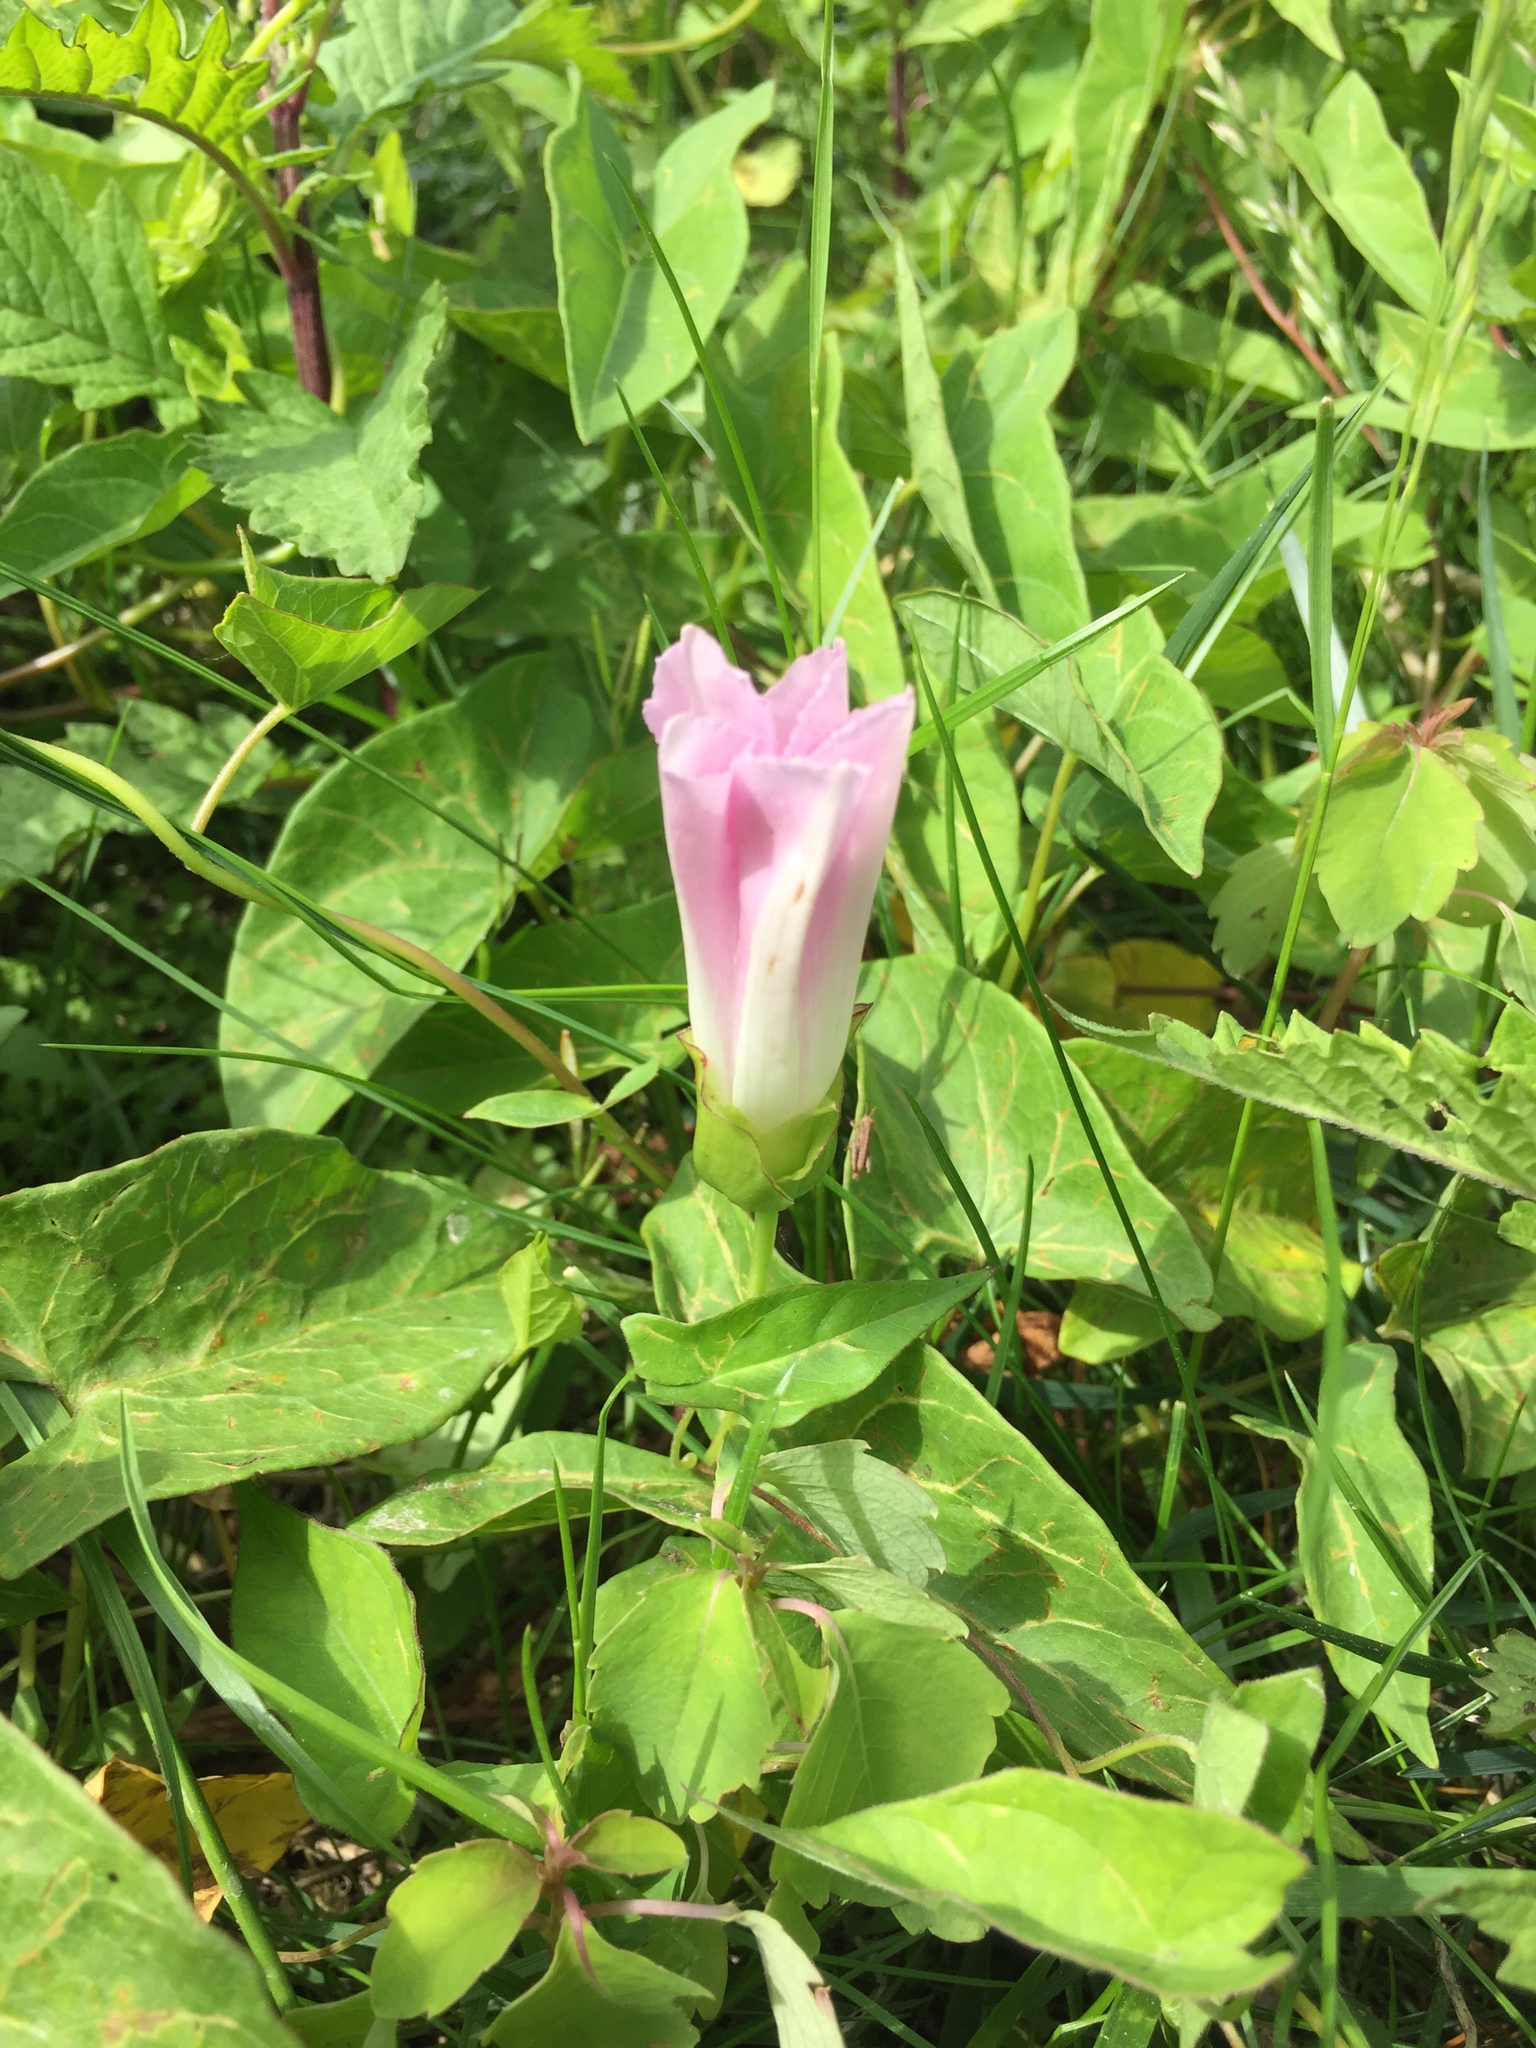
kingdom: Plantae
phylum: Tracheophyta
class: Magnoliopsida
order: Solanales
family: Convolvulaceae
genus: Calystegia
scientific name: Calystegia sepium
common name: Hedge bindweed
